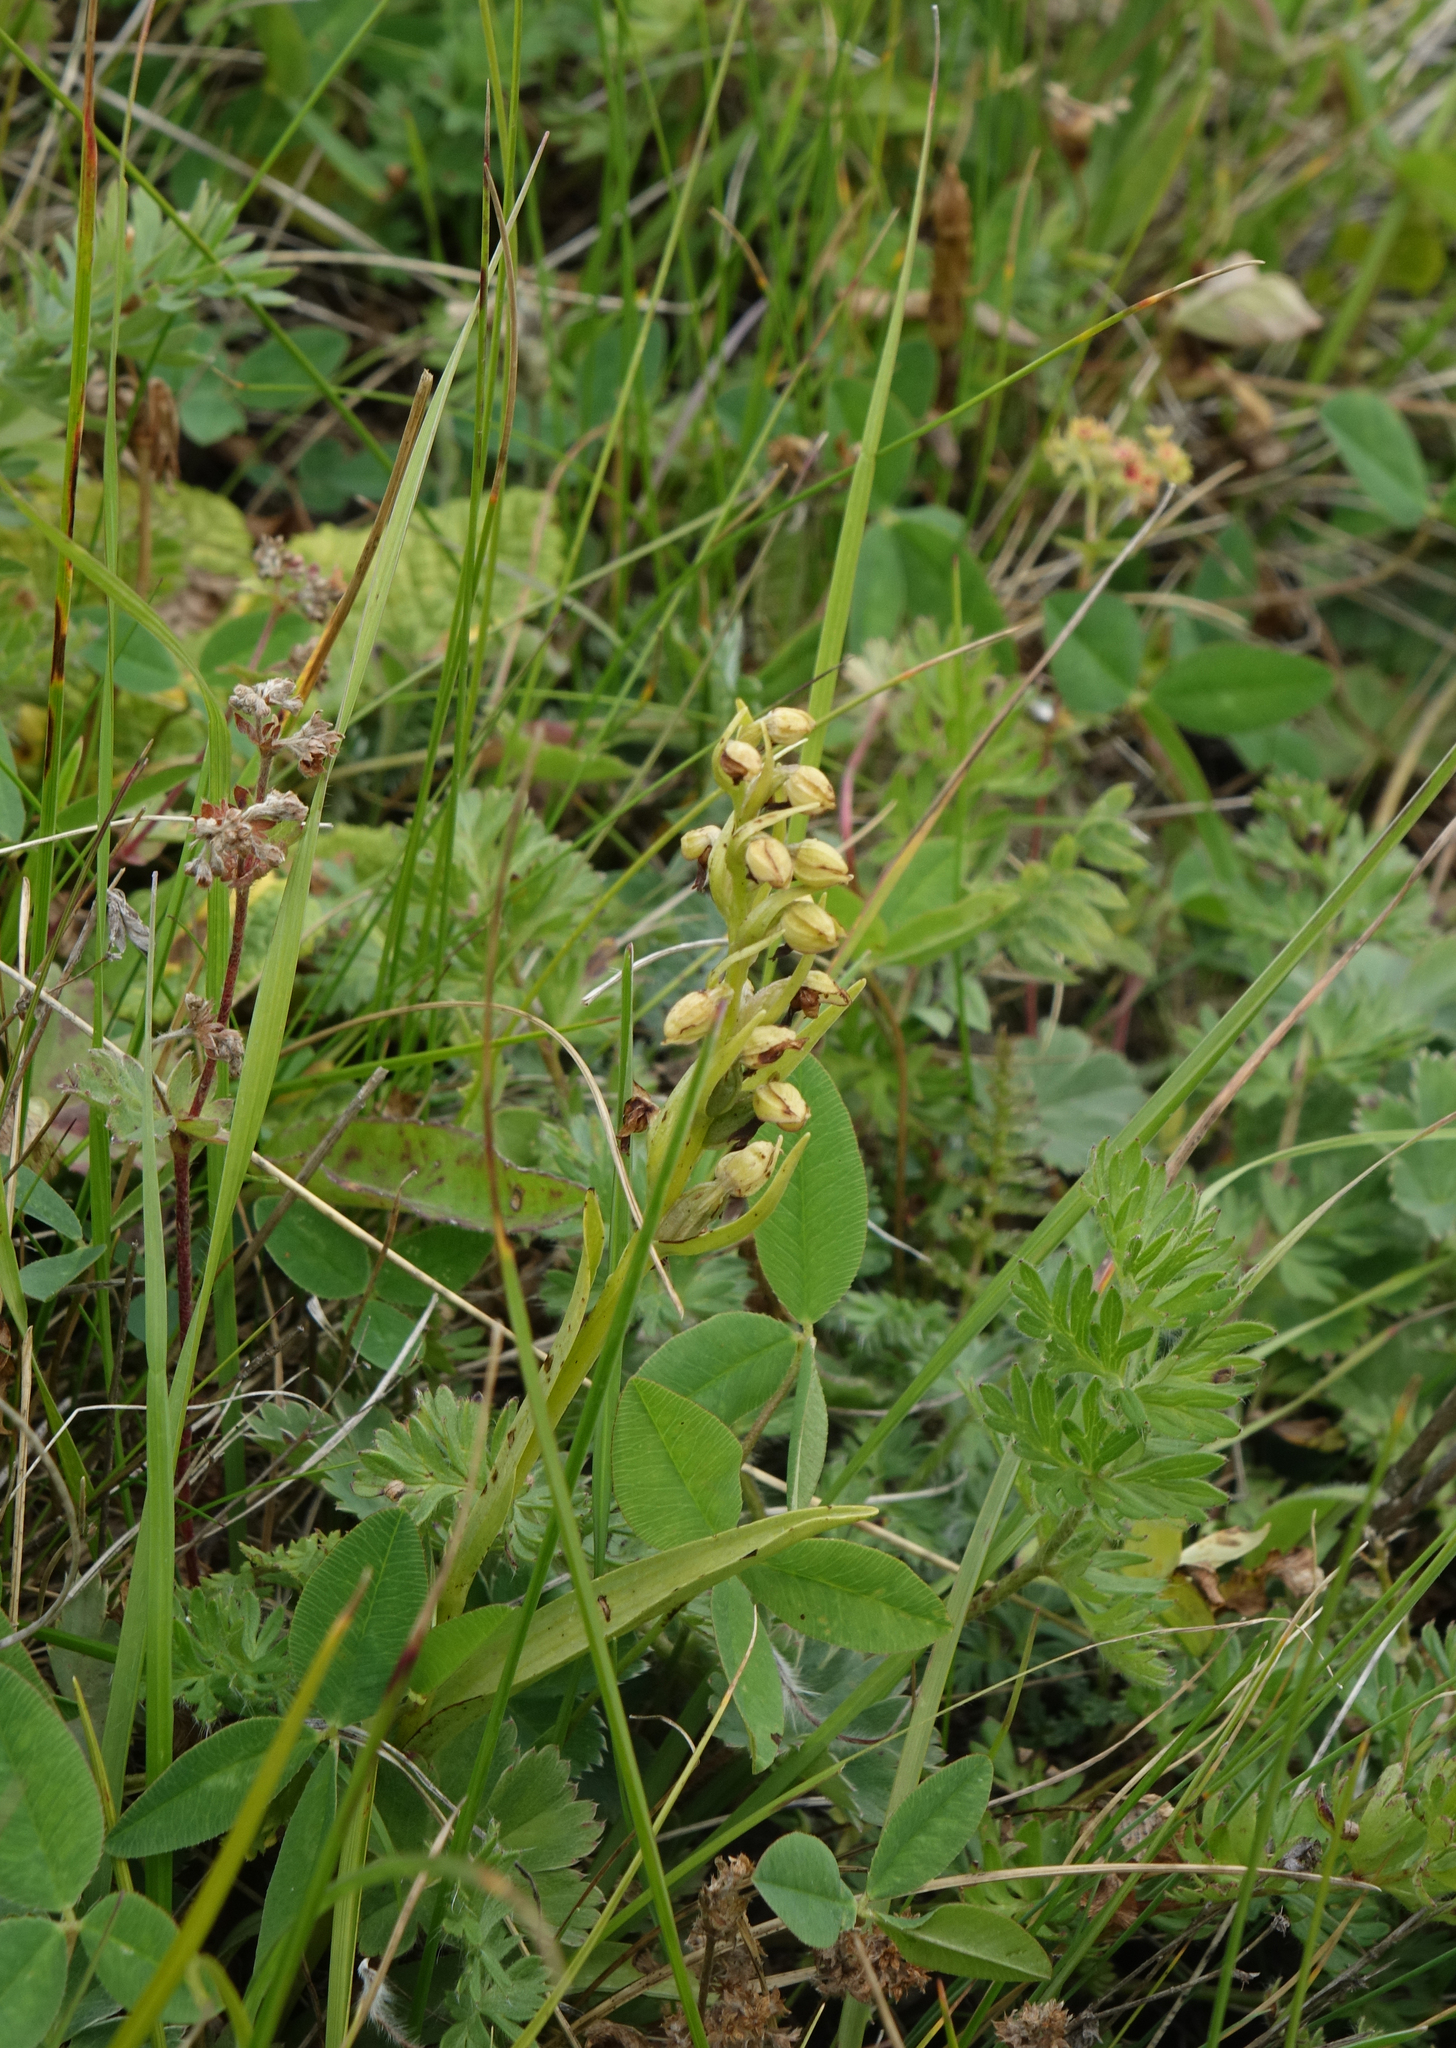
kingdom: Plantae
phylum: Tracheophyta
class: Liliopsida
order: Asparagales
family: Orchidaceae
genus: Dactylorhiza
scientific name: Dactylorhiza viridis
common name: Longbract frog orchid
